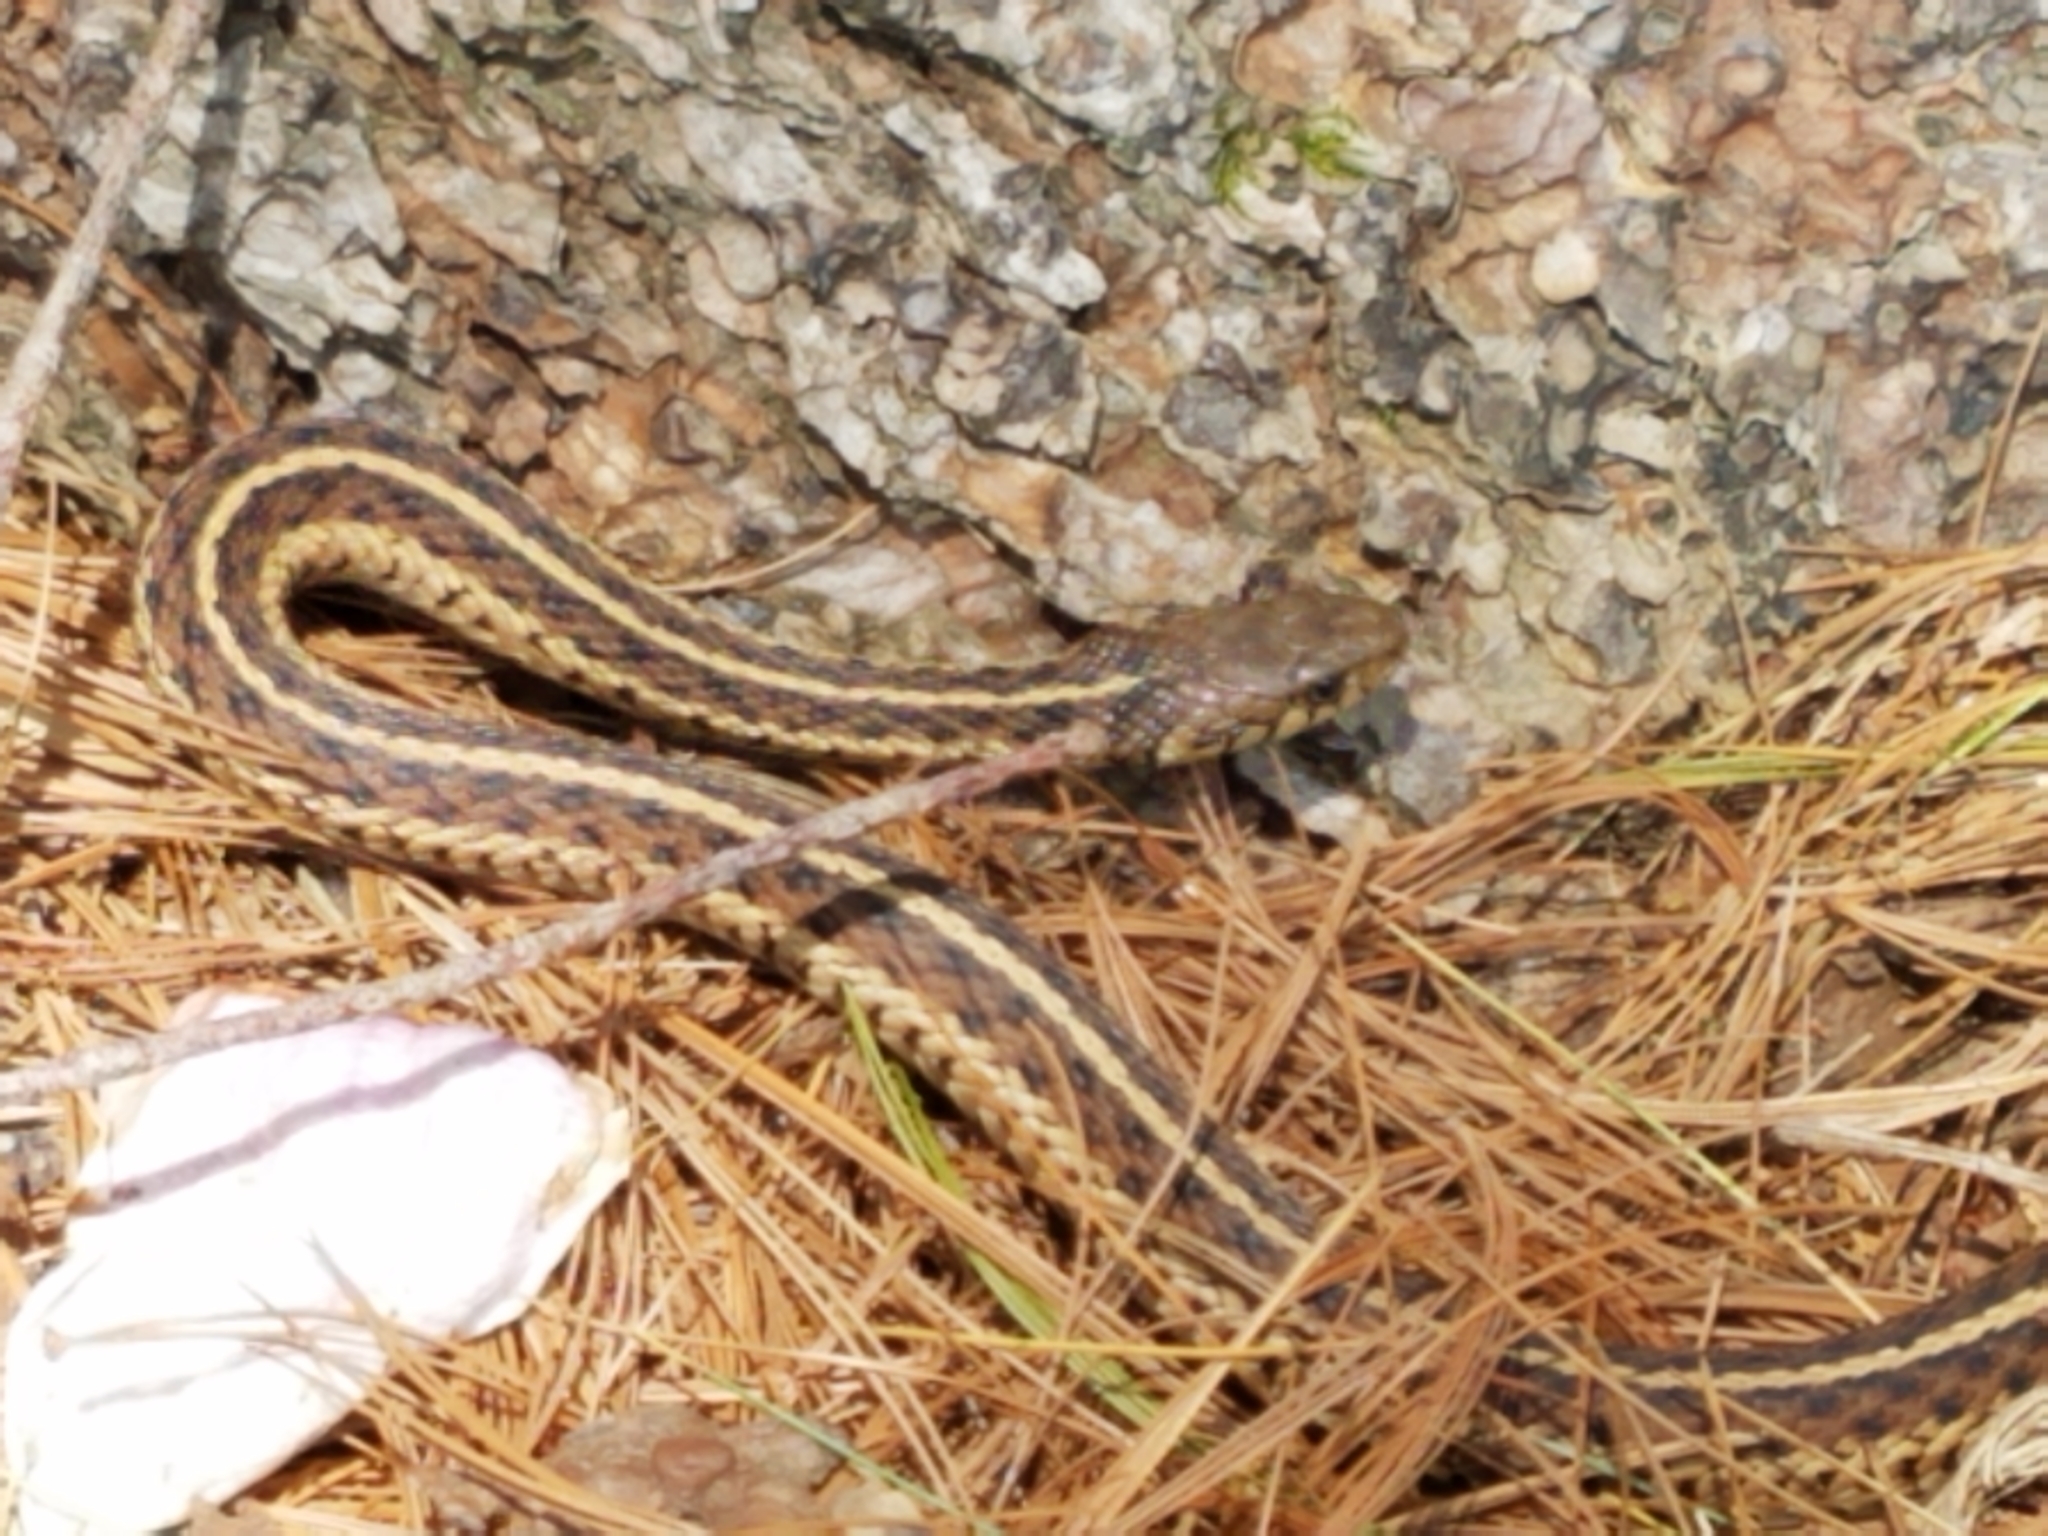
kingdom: Animalia
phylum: Chordata
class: Squamata
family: Colubridae
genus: Thamnophis
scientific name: Thamnophis sirtalis
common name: Common garter snake
